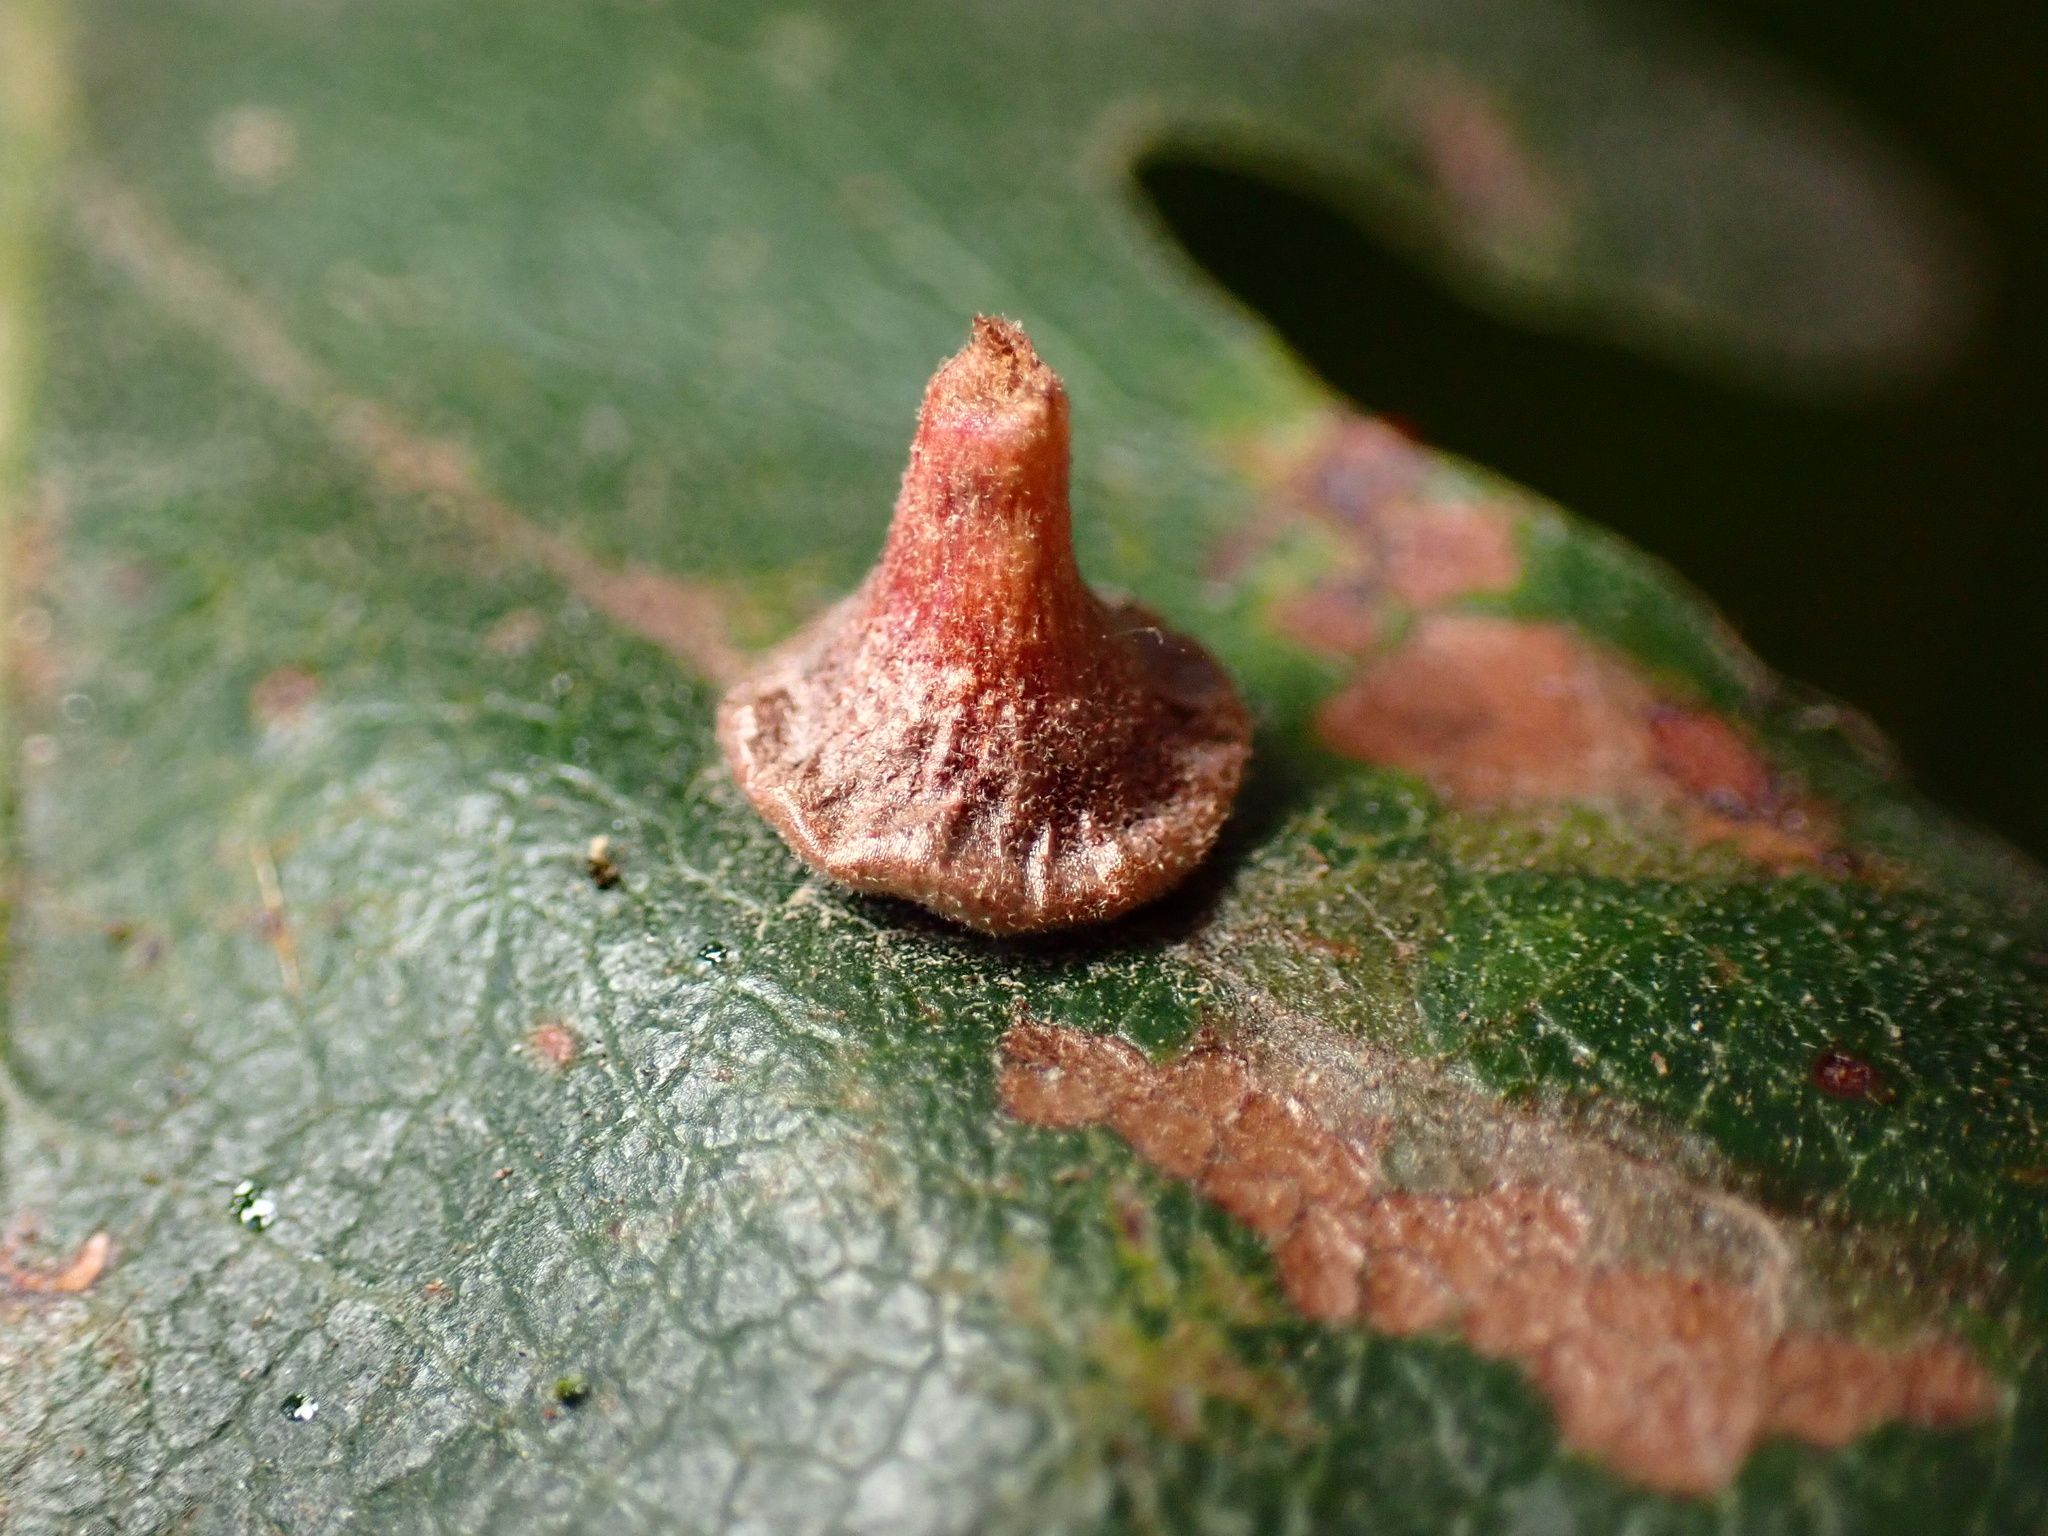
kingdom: Animalia
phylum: Arthropoda
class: Insecta
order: Hymenoptera
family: Cynipidae
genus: Andricus
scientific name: Andricus
